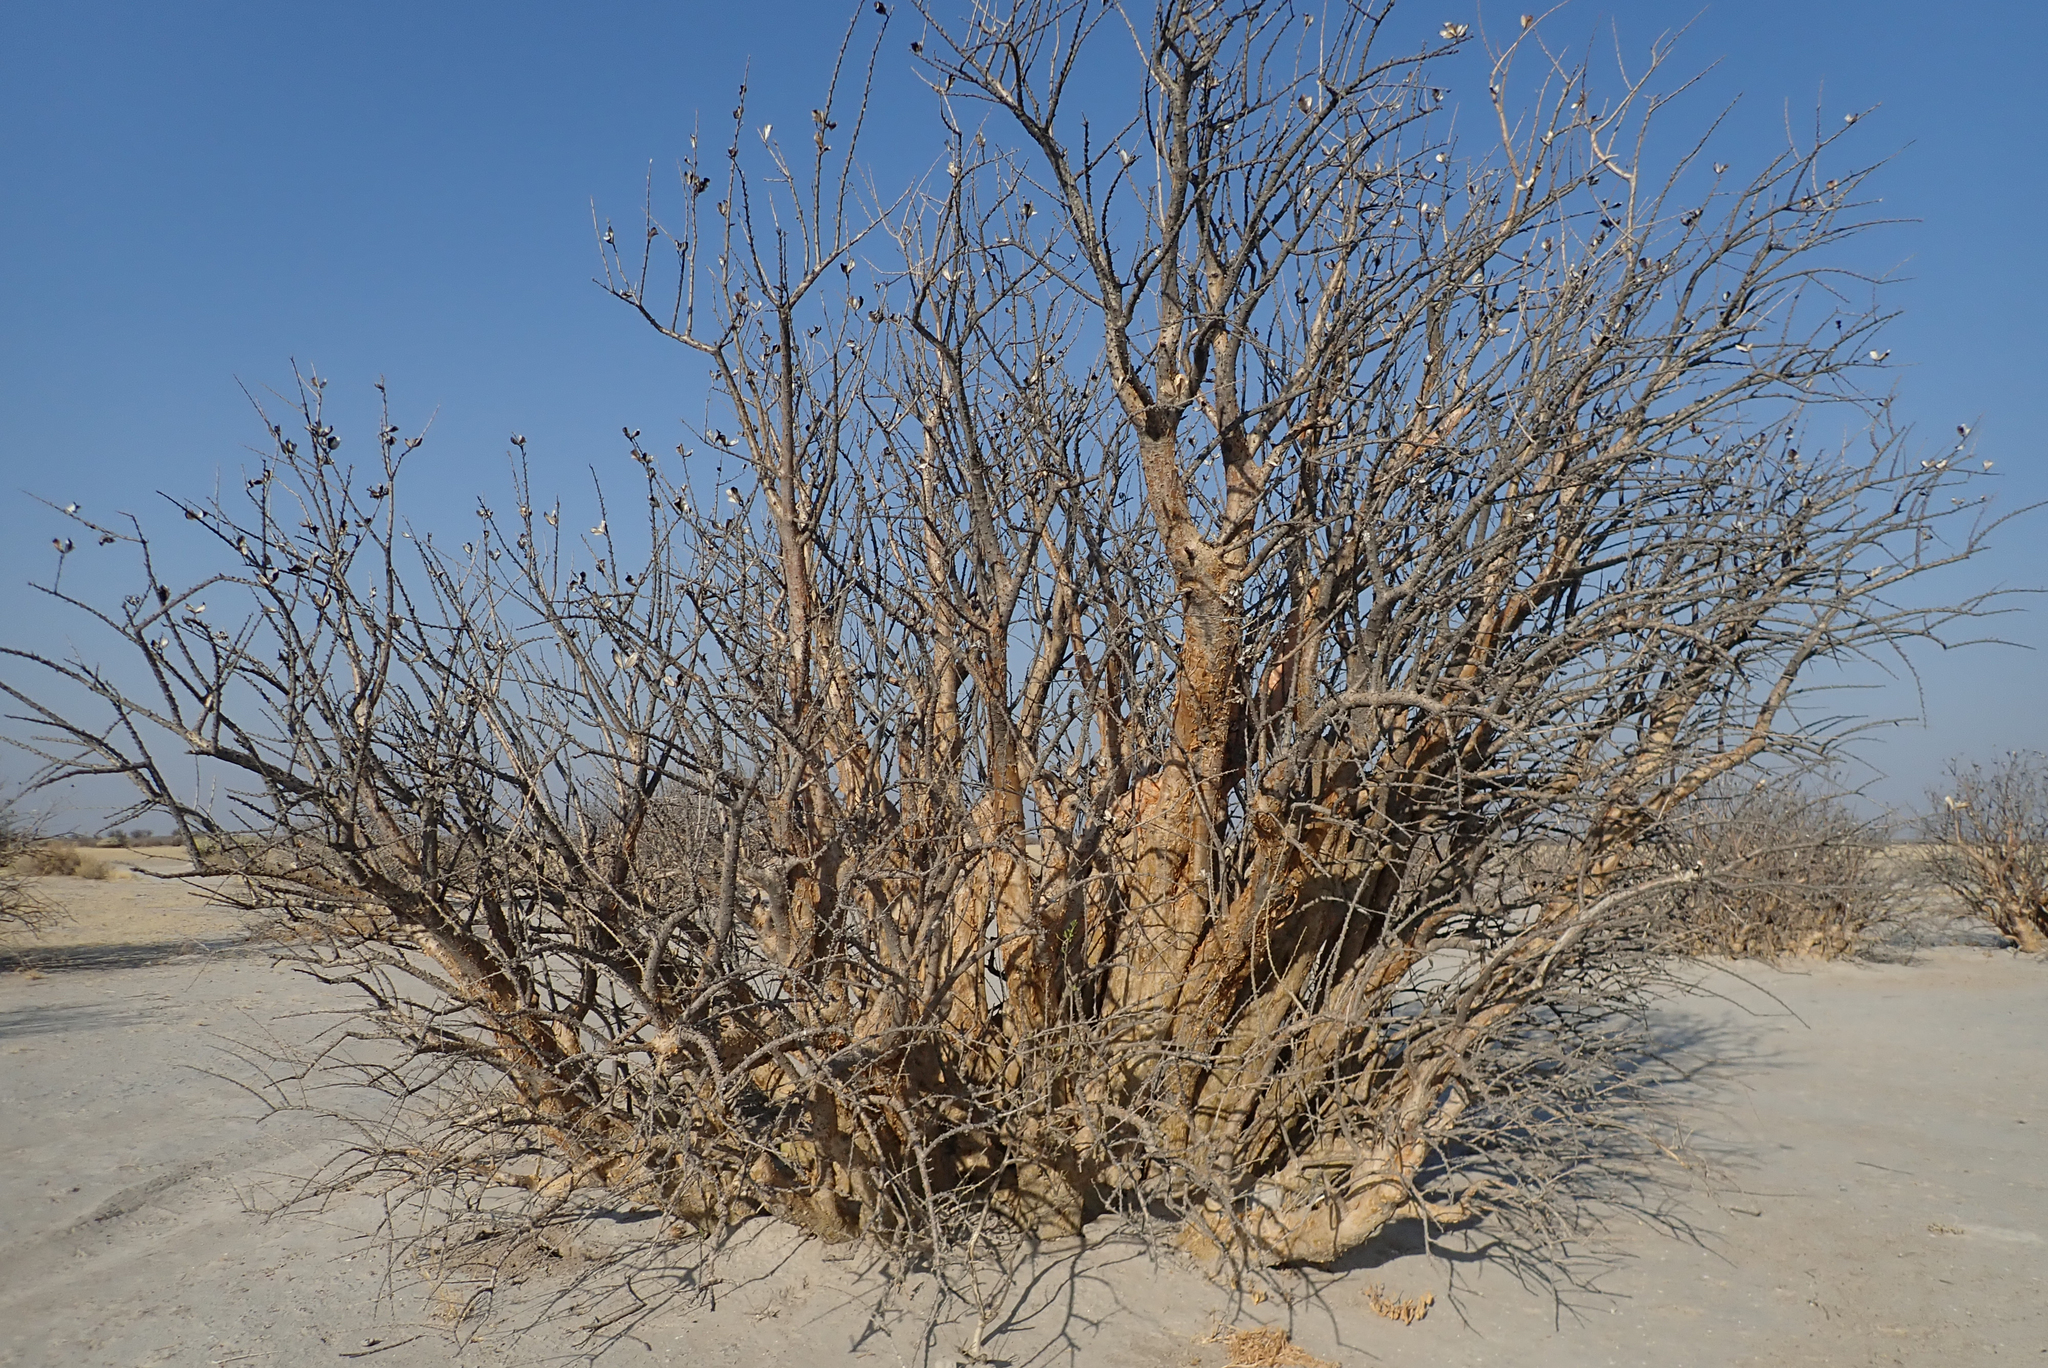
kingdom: Plantae
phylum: Tracheophyta
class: Magnoliopsida
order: Lamiales
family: Pedaliaceae
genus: Sesamothamnus
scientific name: Sesamothamnus lugardii
